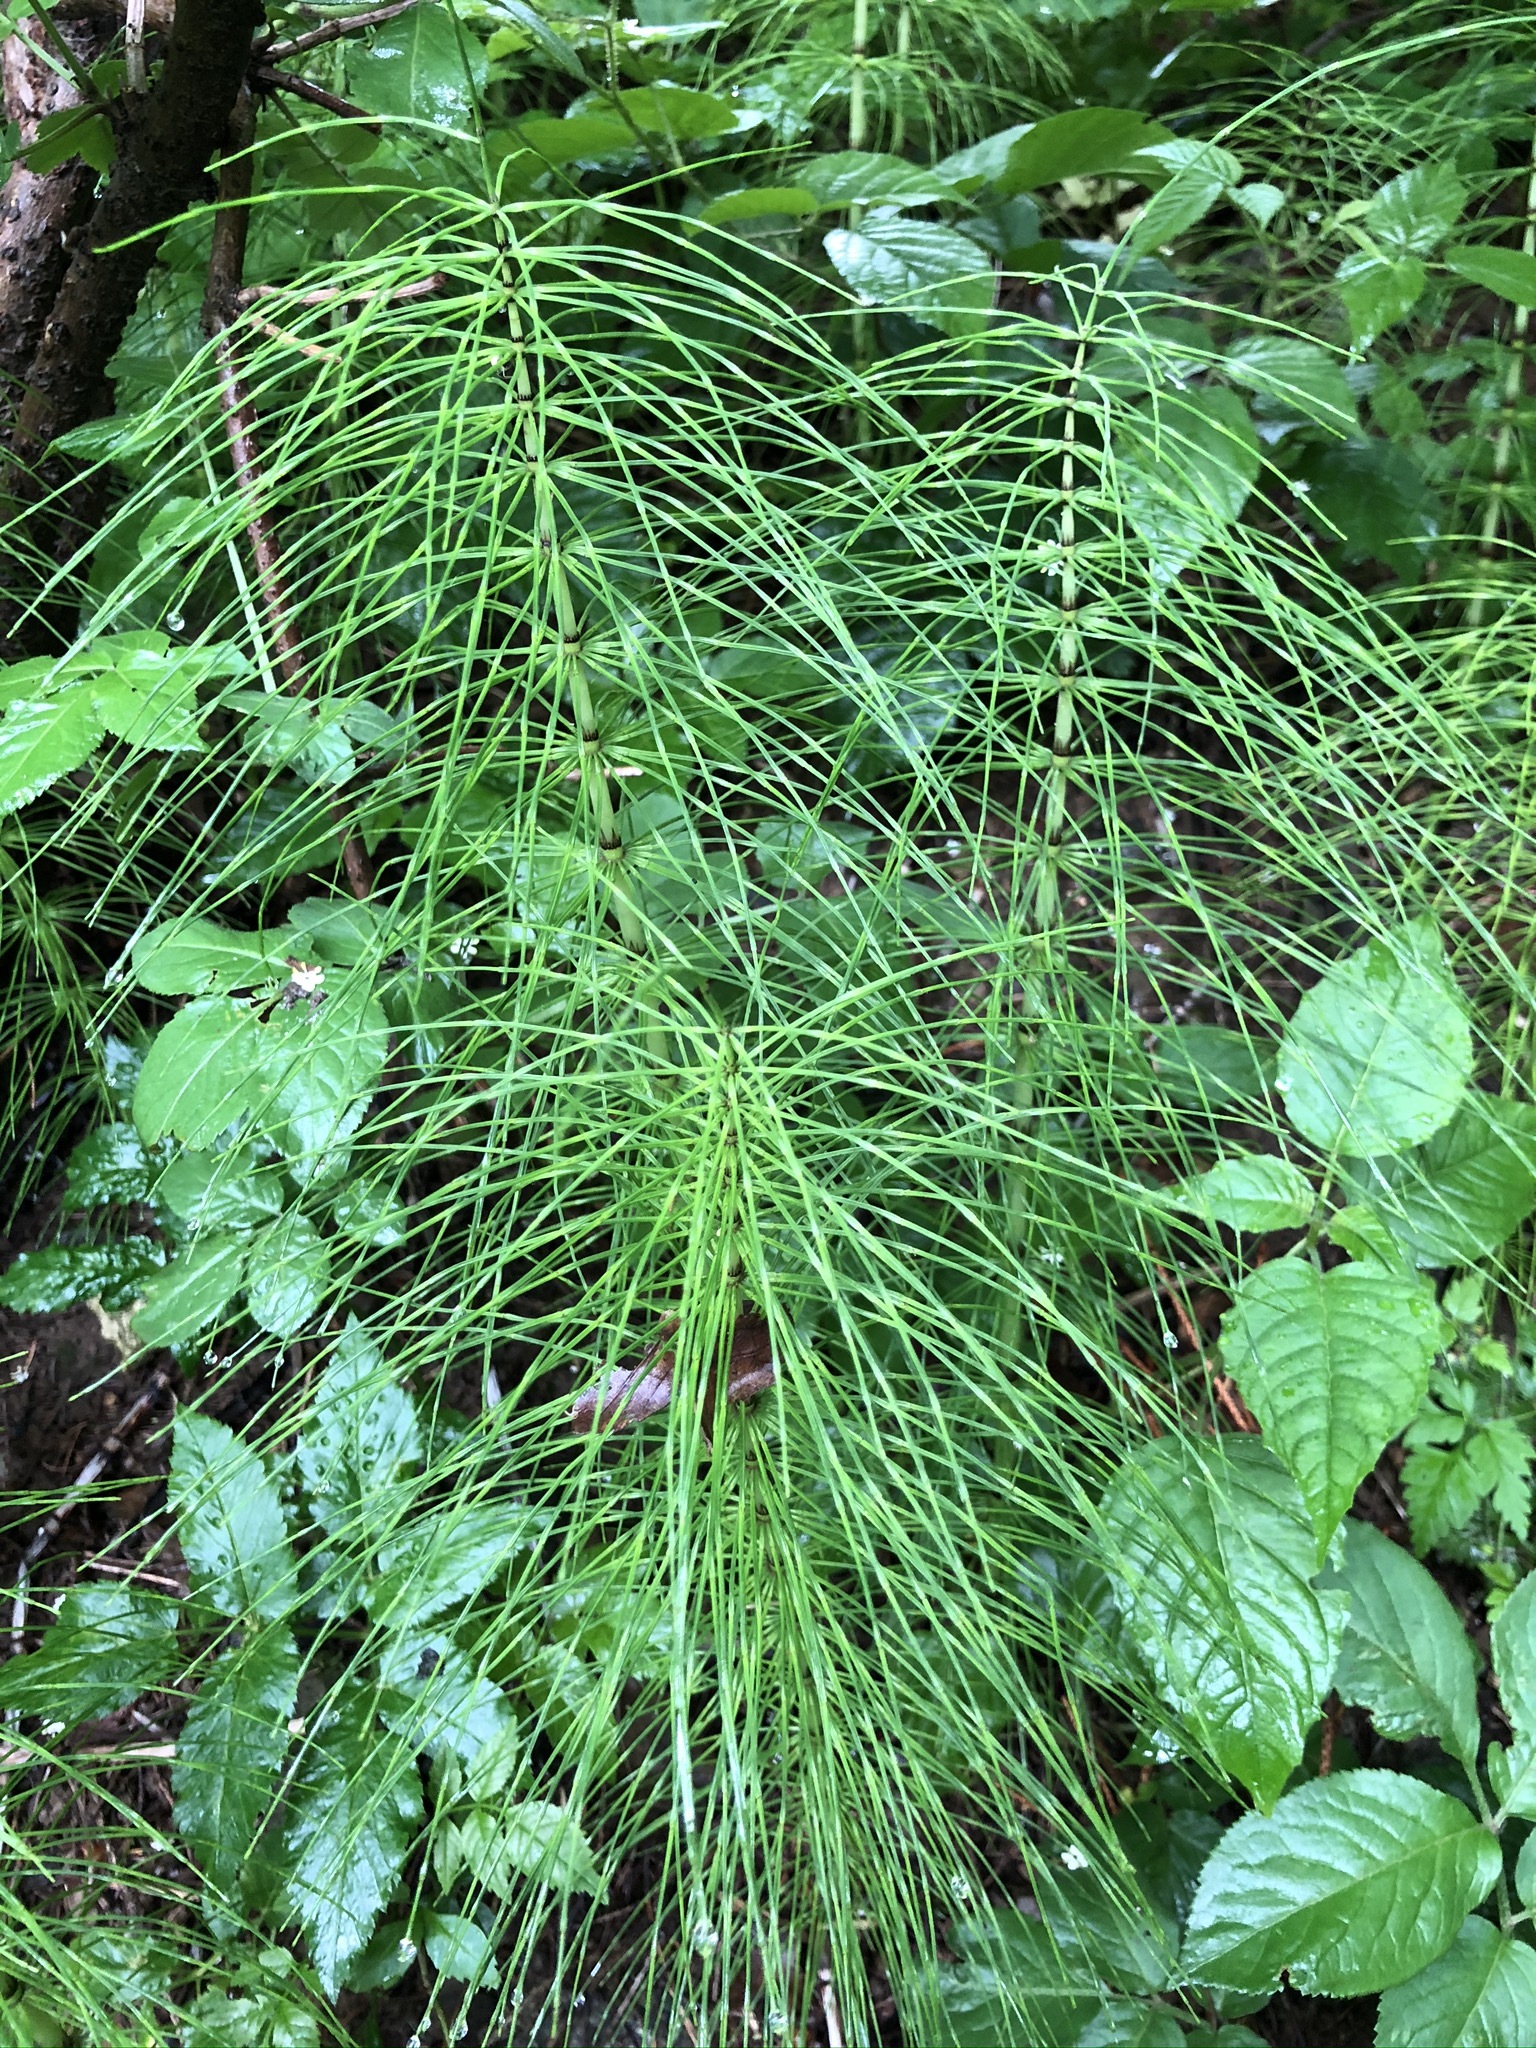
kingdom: Plantae
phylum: Tracheophyta
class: Polypodiopsida
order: Equisetales
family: Equisetaceae
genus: Equisetum
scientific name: Equisetum telmateia
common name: Great horsetail
